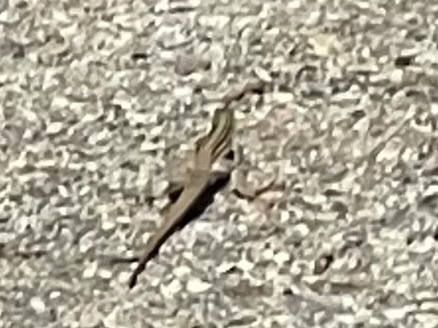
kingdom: Animalia
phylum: Chordata
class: Squamata
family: Teiidae
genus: Aspidoscelis
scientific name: Aspidoscelis gularis
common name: Eastern spotted whiptail
